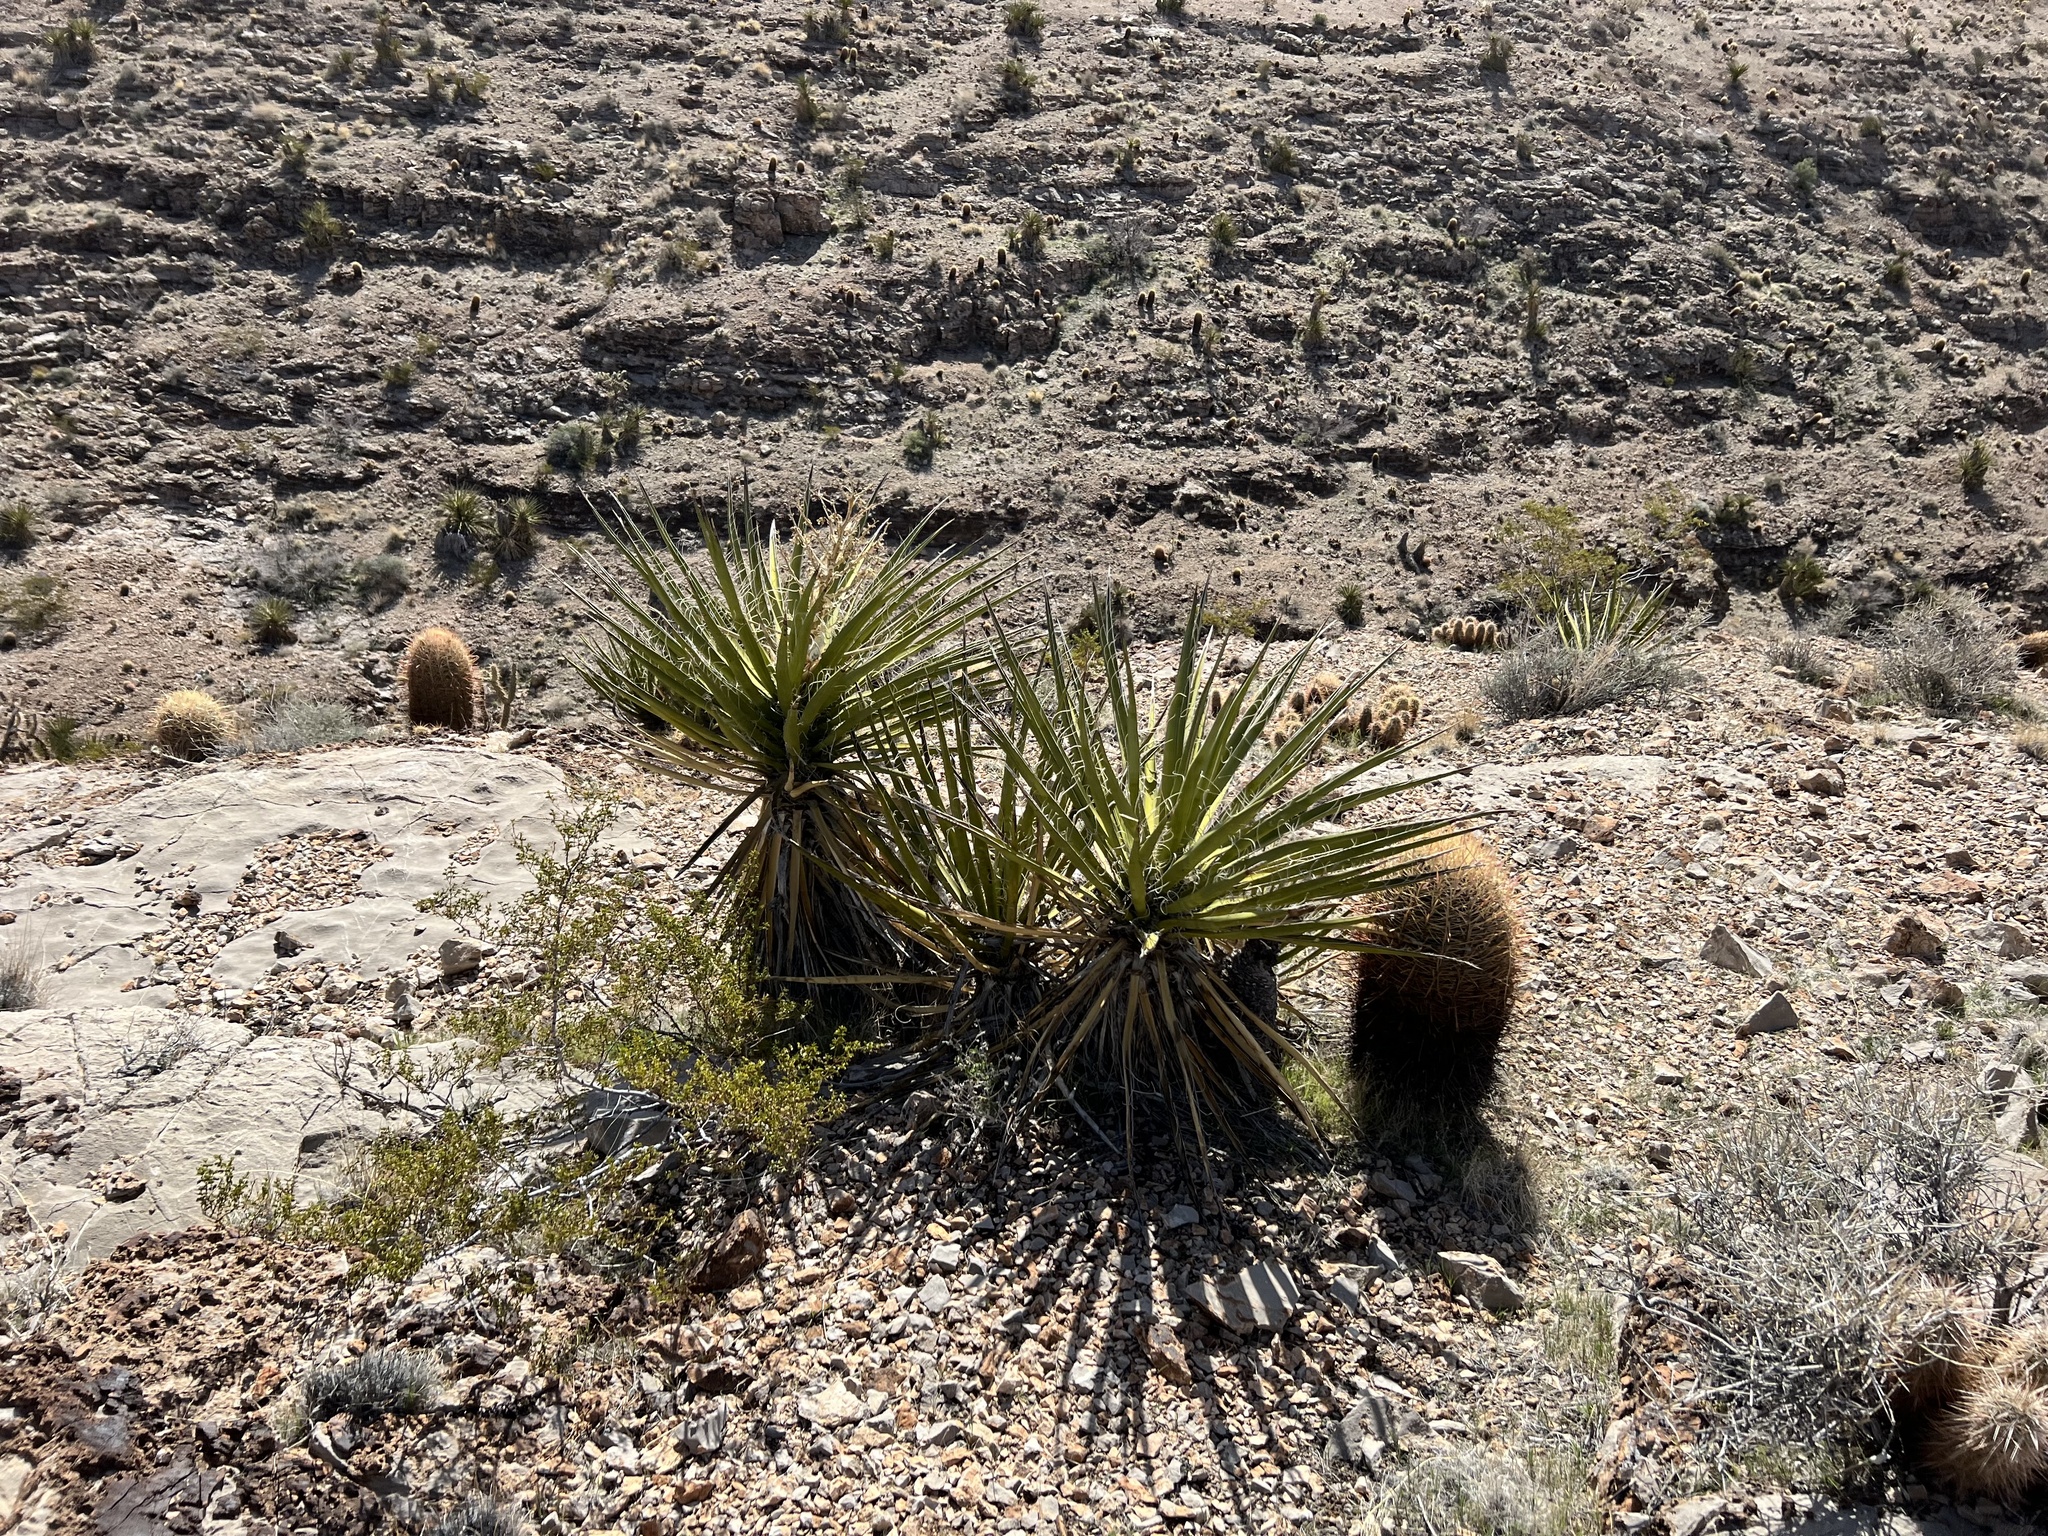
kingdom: Plantae
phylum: Tracheophyta
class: Liliopsida
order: Asparagales
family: Asparagaceae
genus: Yucca
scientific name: Yucca schidigera
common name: Mojave yucca
